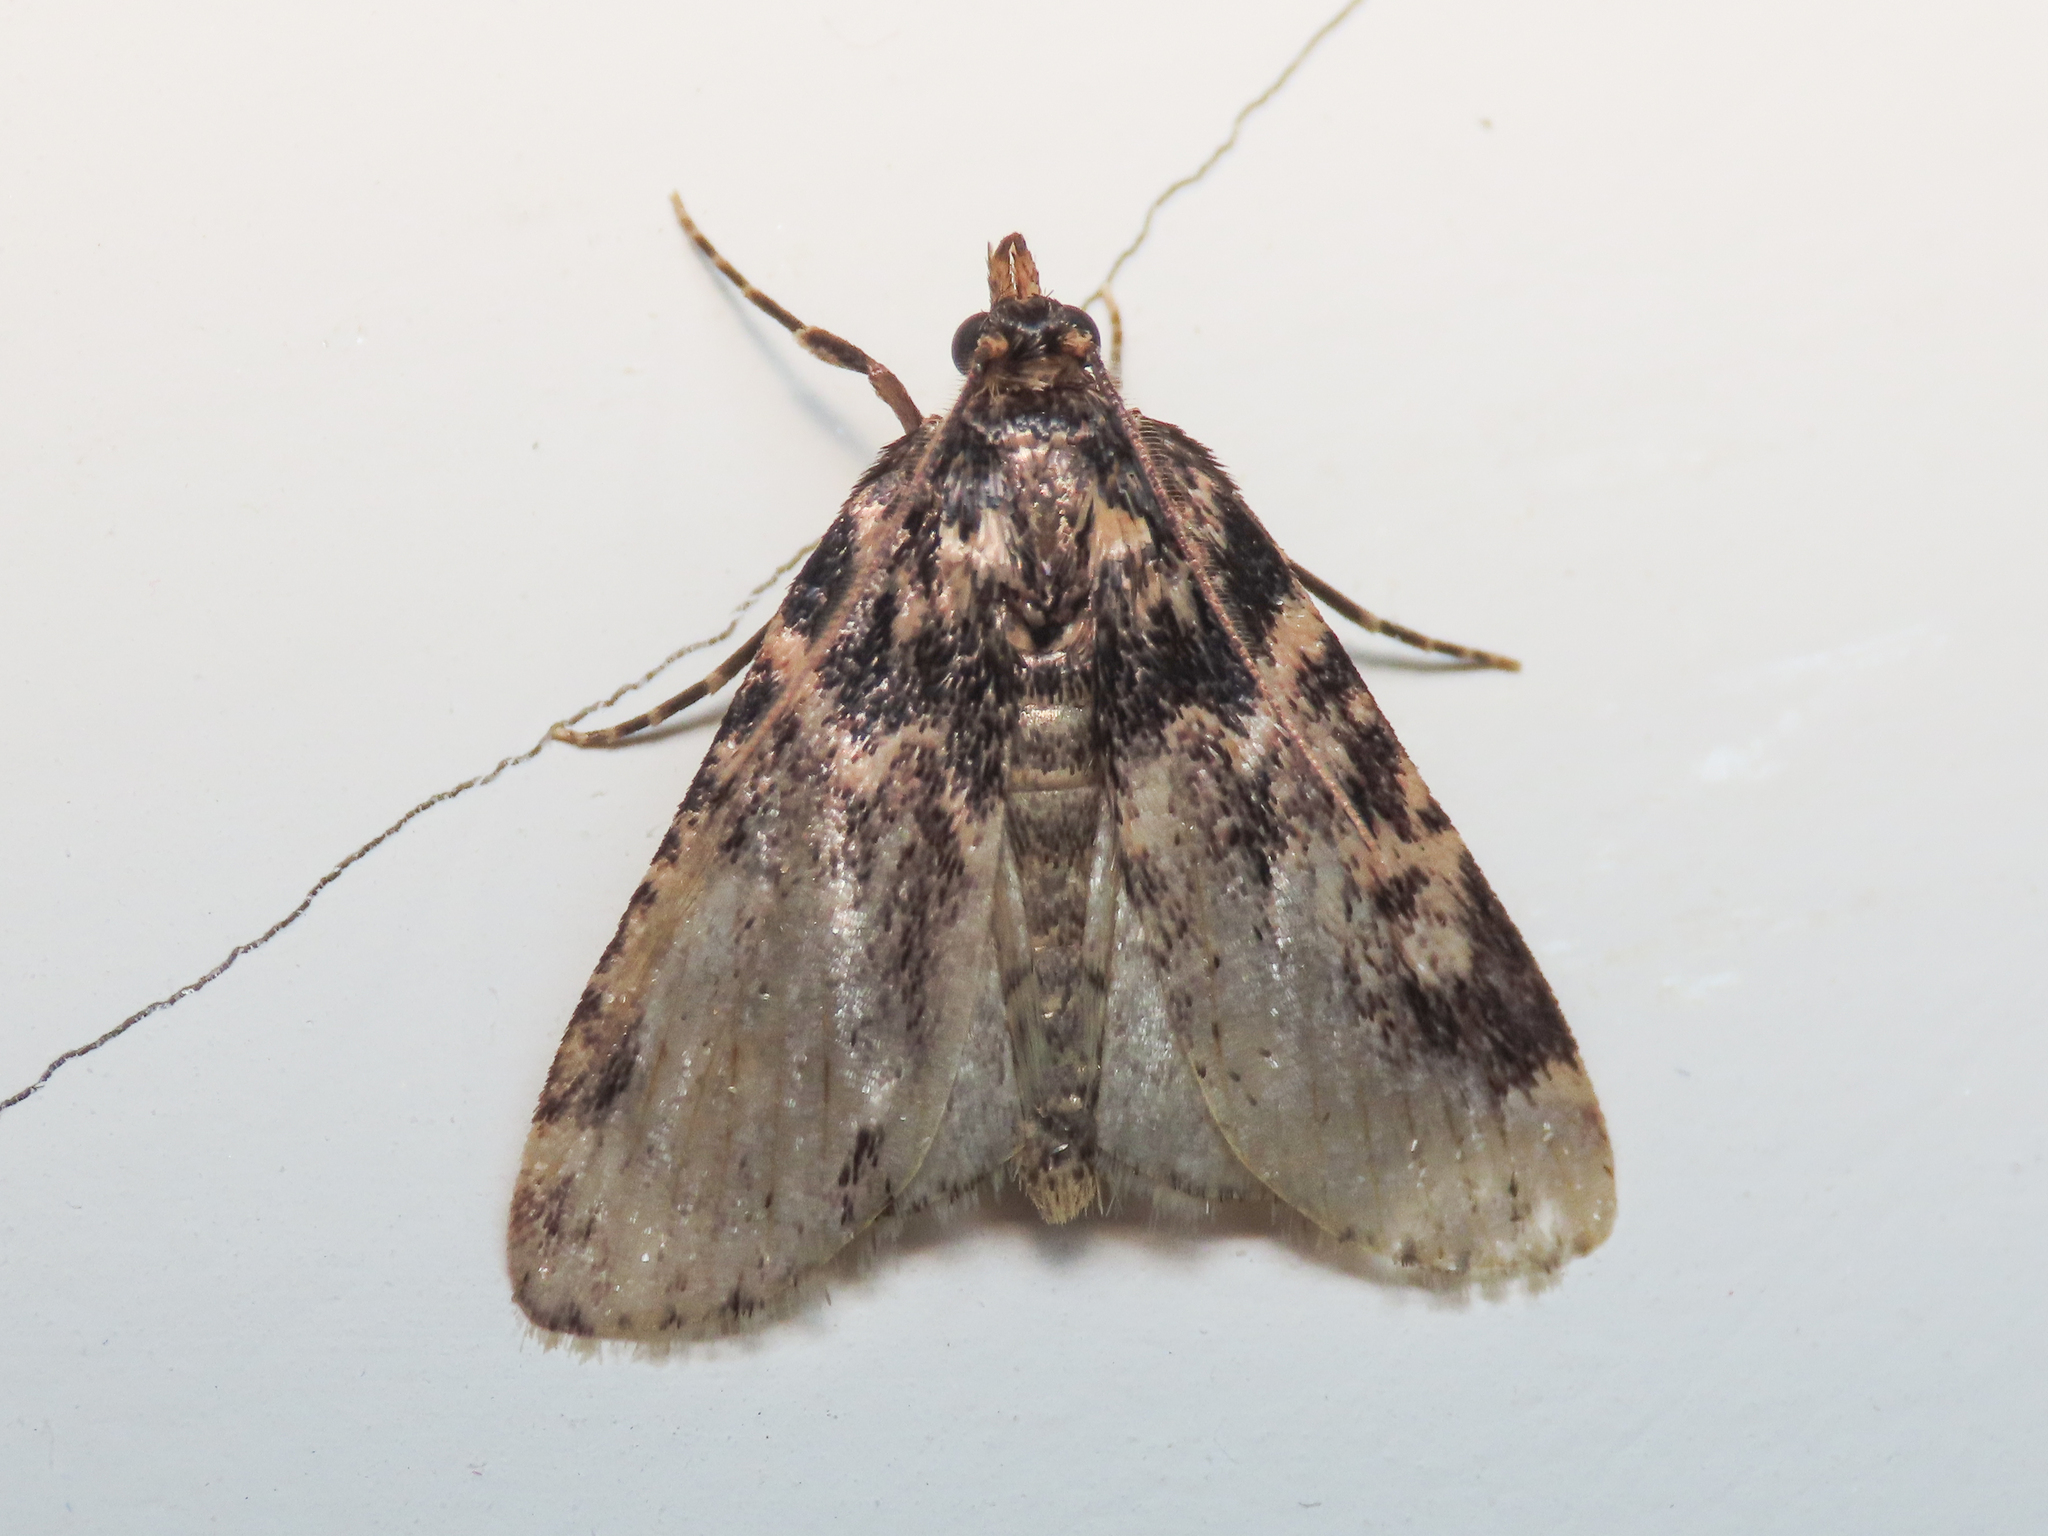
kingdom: Animalia
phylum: Arthropoda
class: Insecta
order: Lepidoptera
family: Pyralidae
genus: Aglossa
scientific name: Aglossa caprealis
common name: Small tabby
